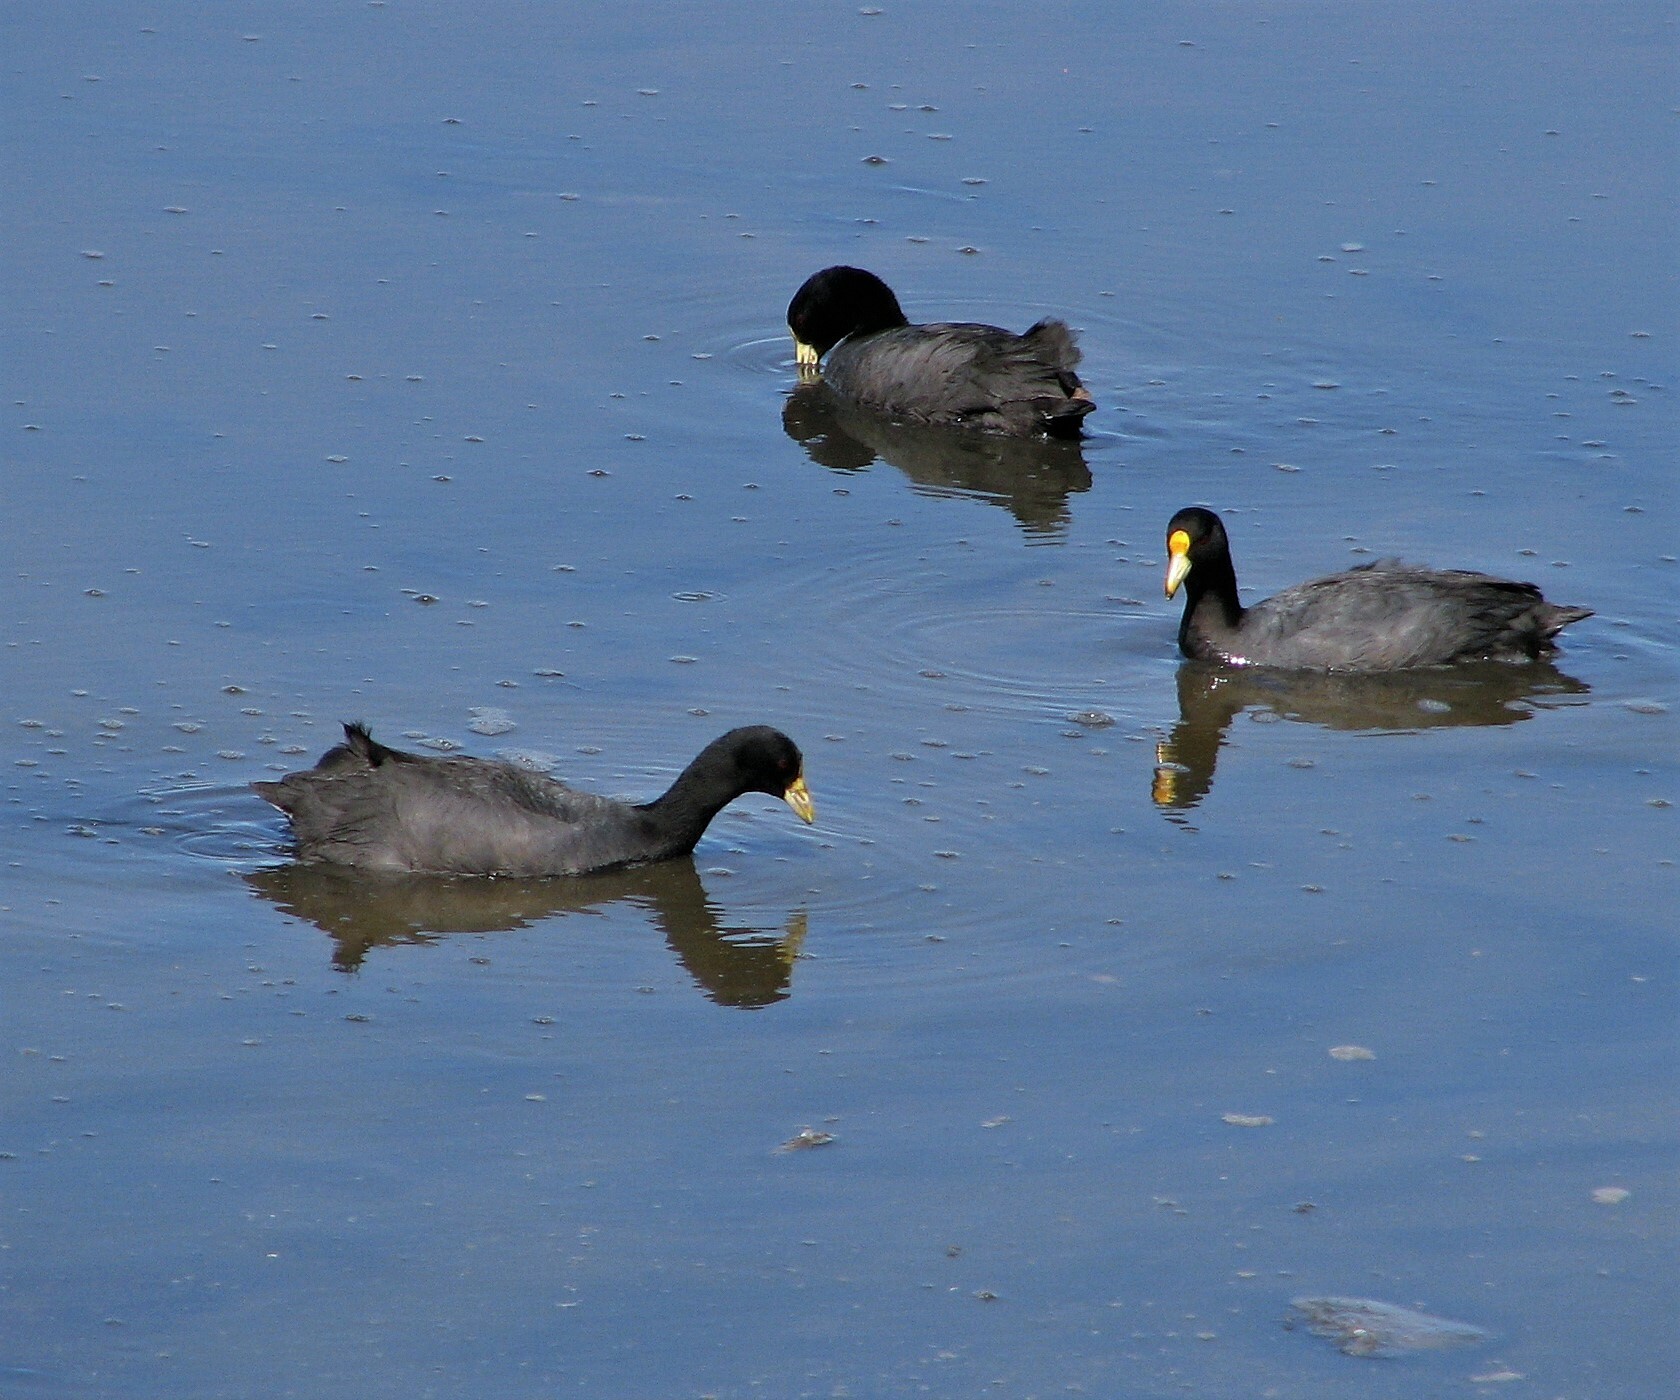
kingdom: Animalia
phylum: Chordata
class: Aves
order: Gruiformes
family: Rallidae
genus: Fulica
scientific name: Fulica leucoptera
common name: White-winged coot
